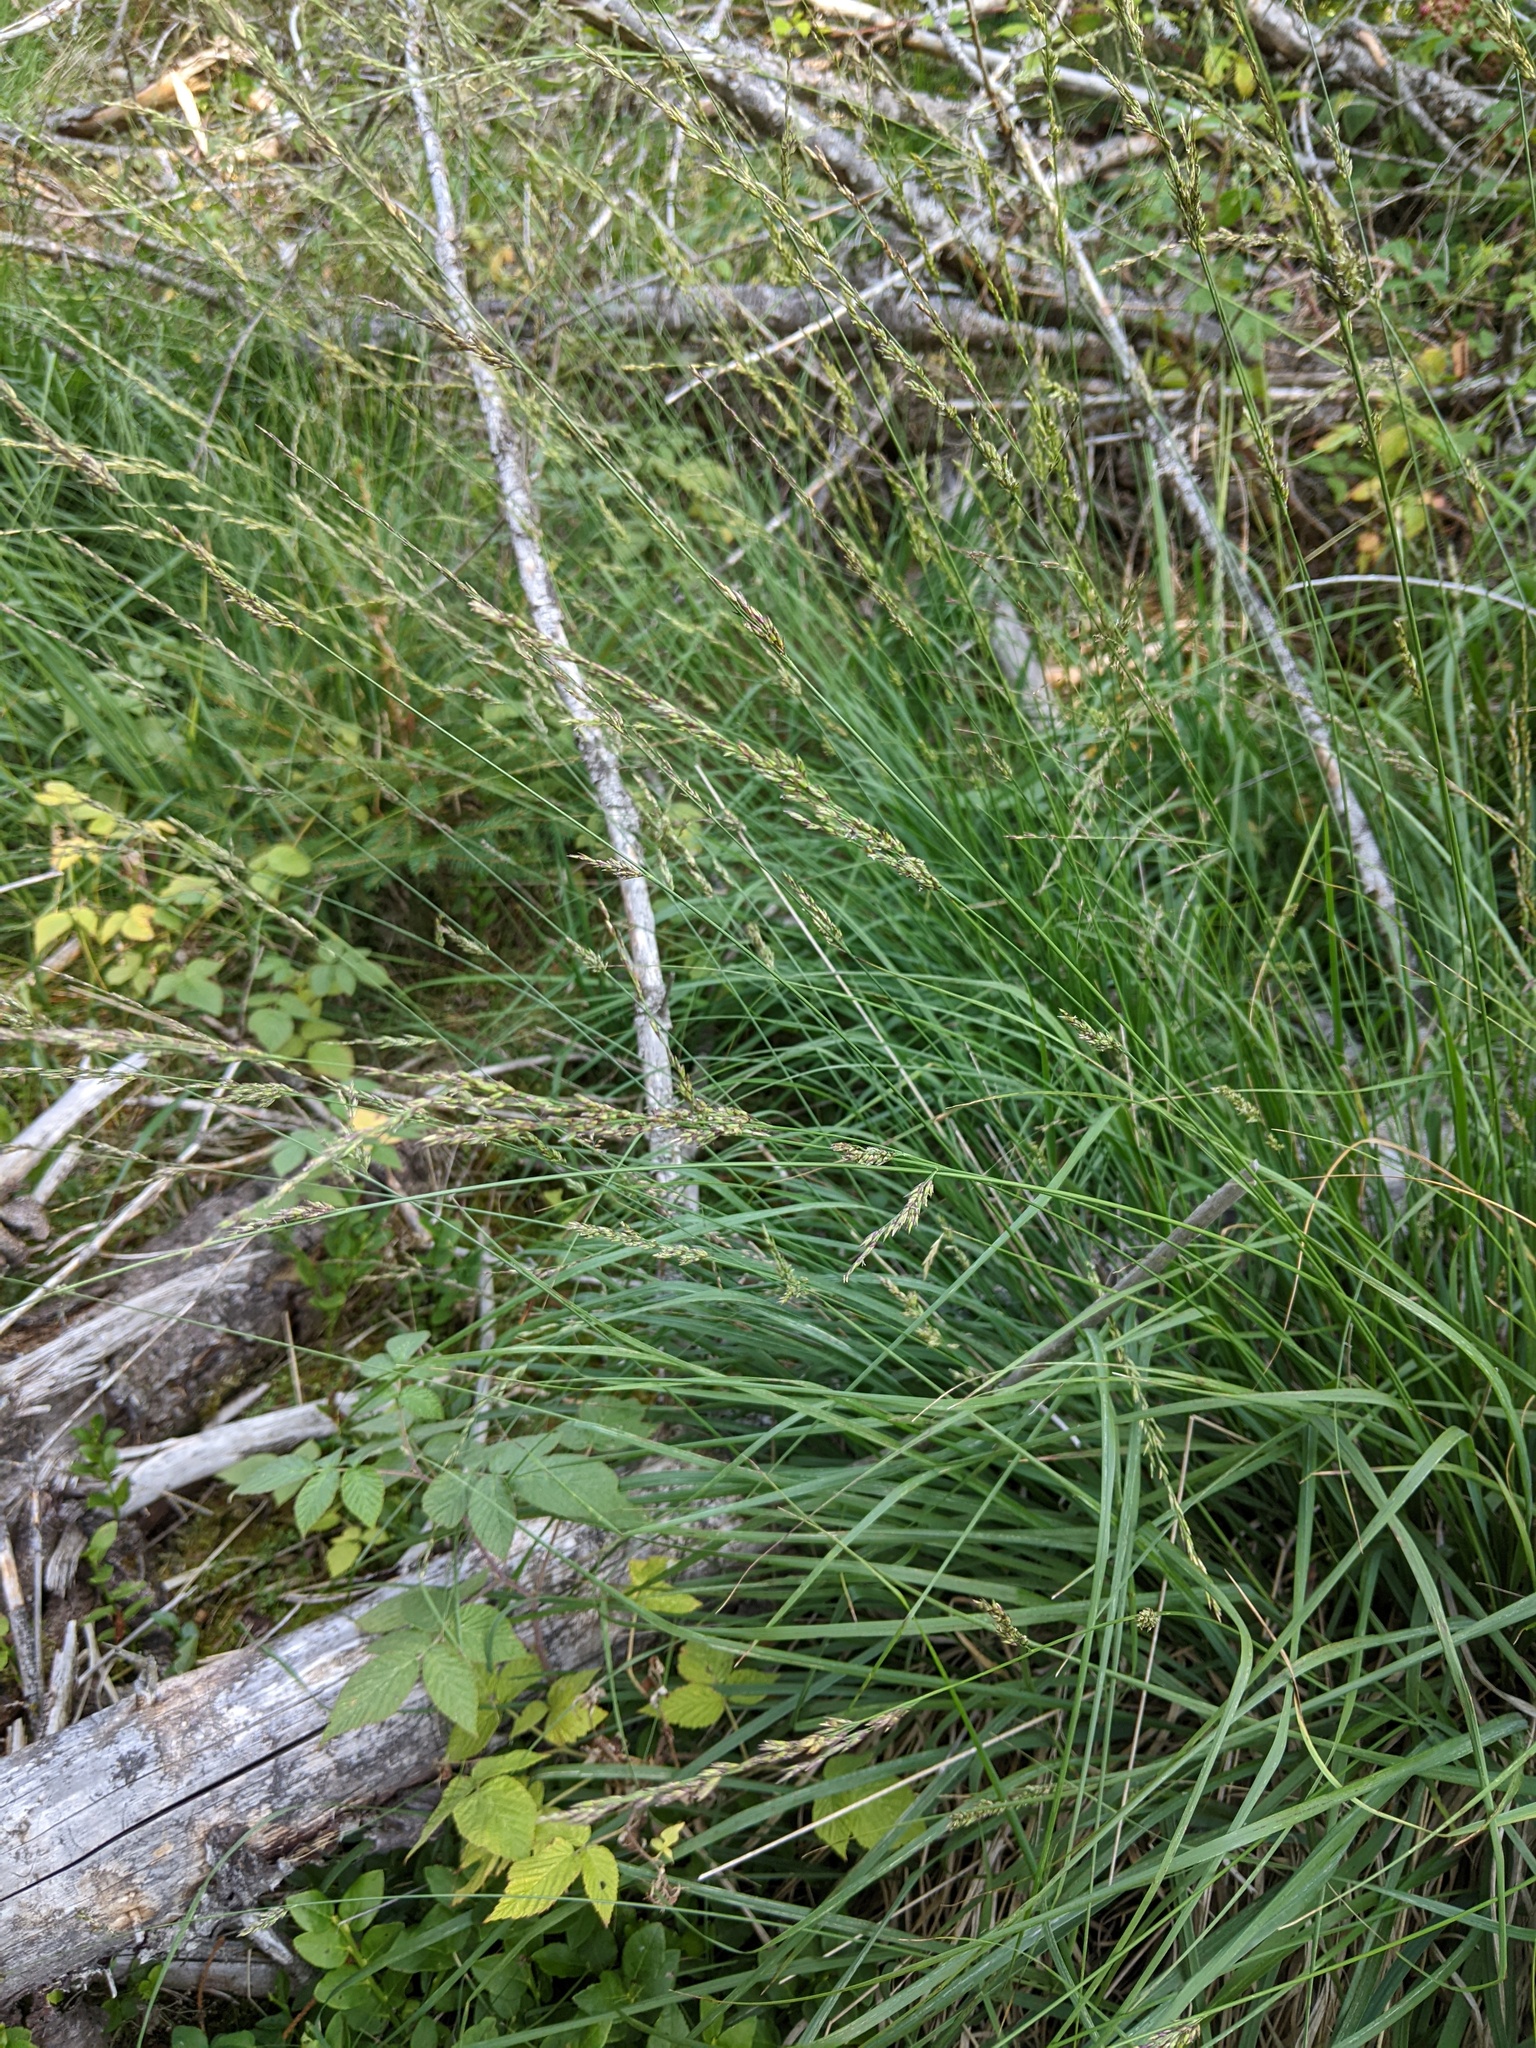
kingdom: Plantae
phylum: Tracheophyta
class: Liliopsida
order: Poales
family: Poaceae
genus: Molinia
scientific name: Molinia caerulea
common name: Purple moor-grass
